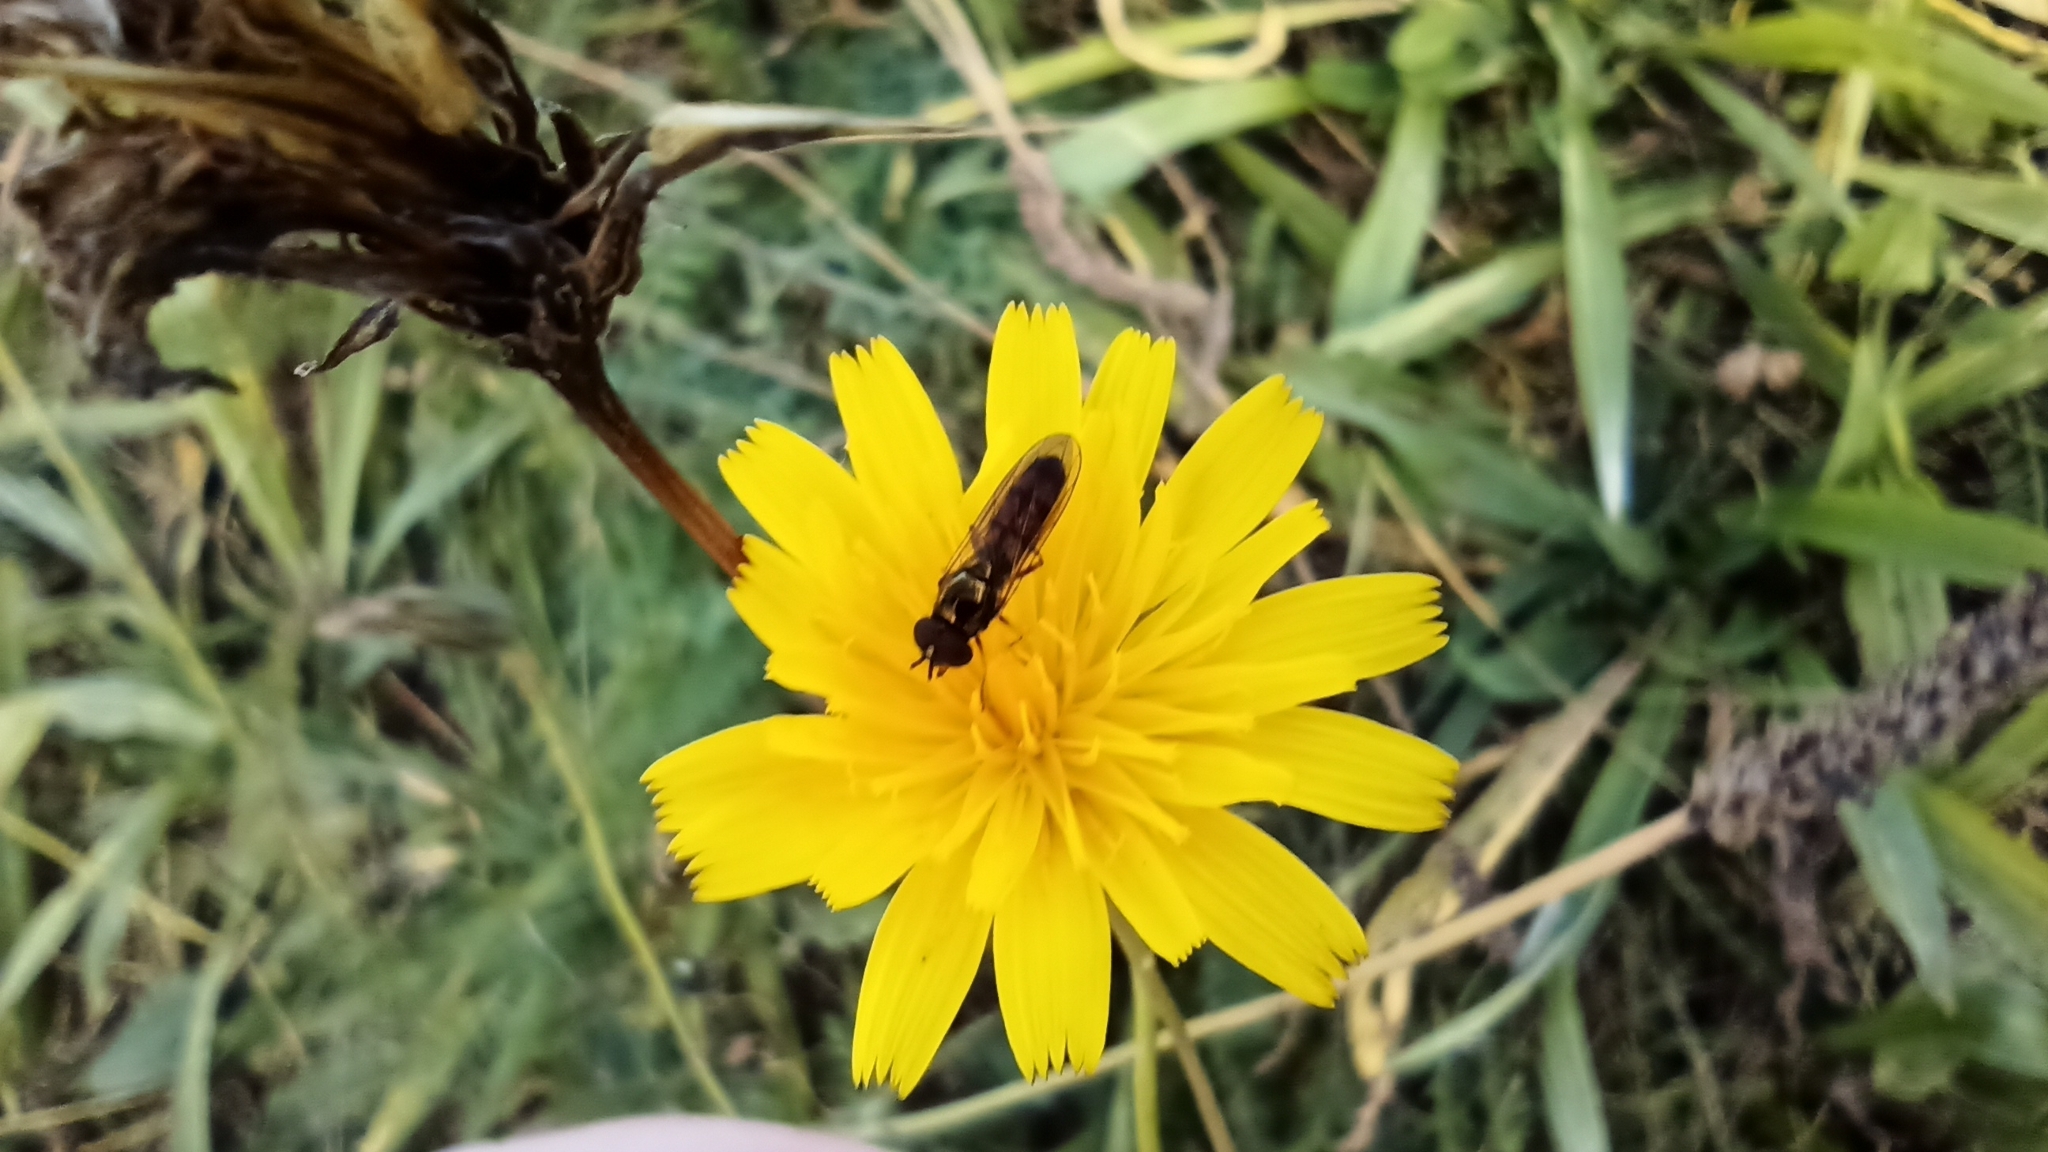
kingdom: Animalia
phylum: Arthropoda
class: Insecta
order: Diptera
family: Syrphidae
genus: Melanostoma
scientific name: Melanostoma mellina
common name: Hover fly
